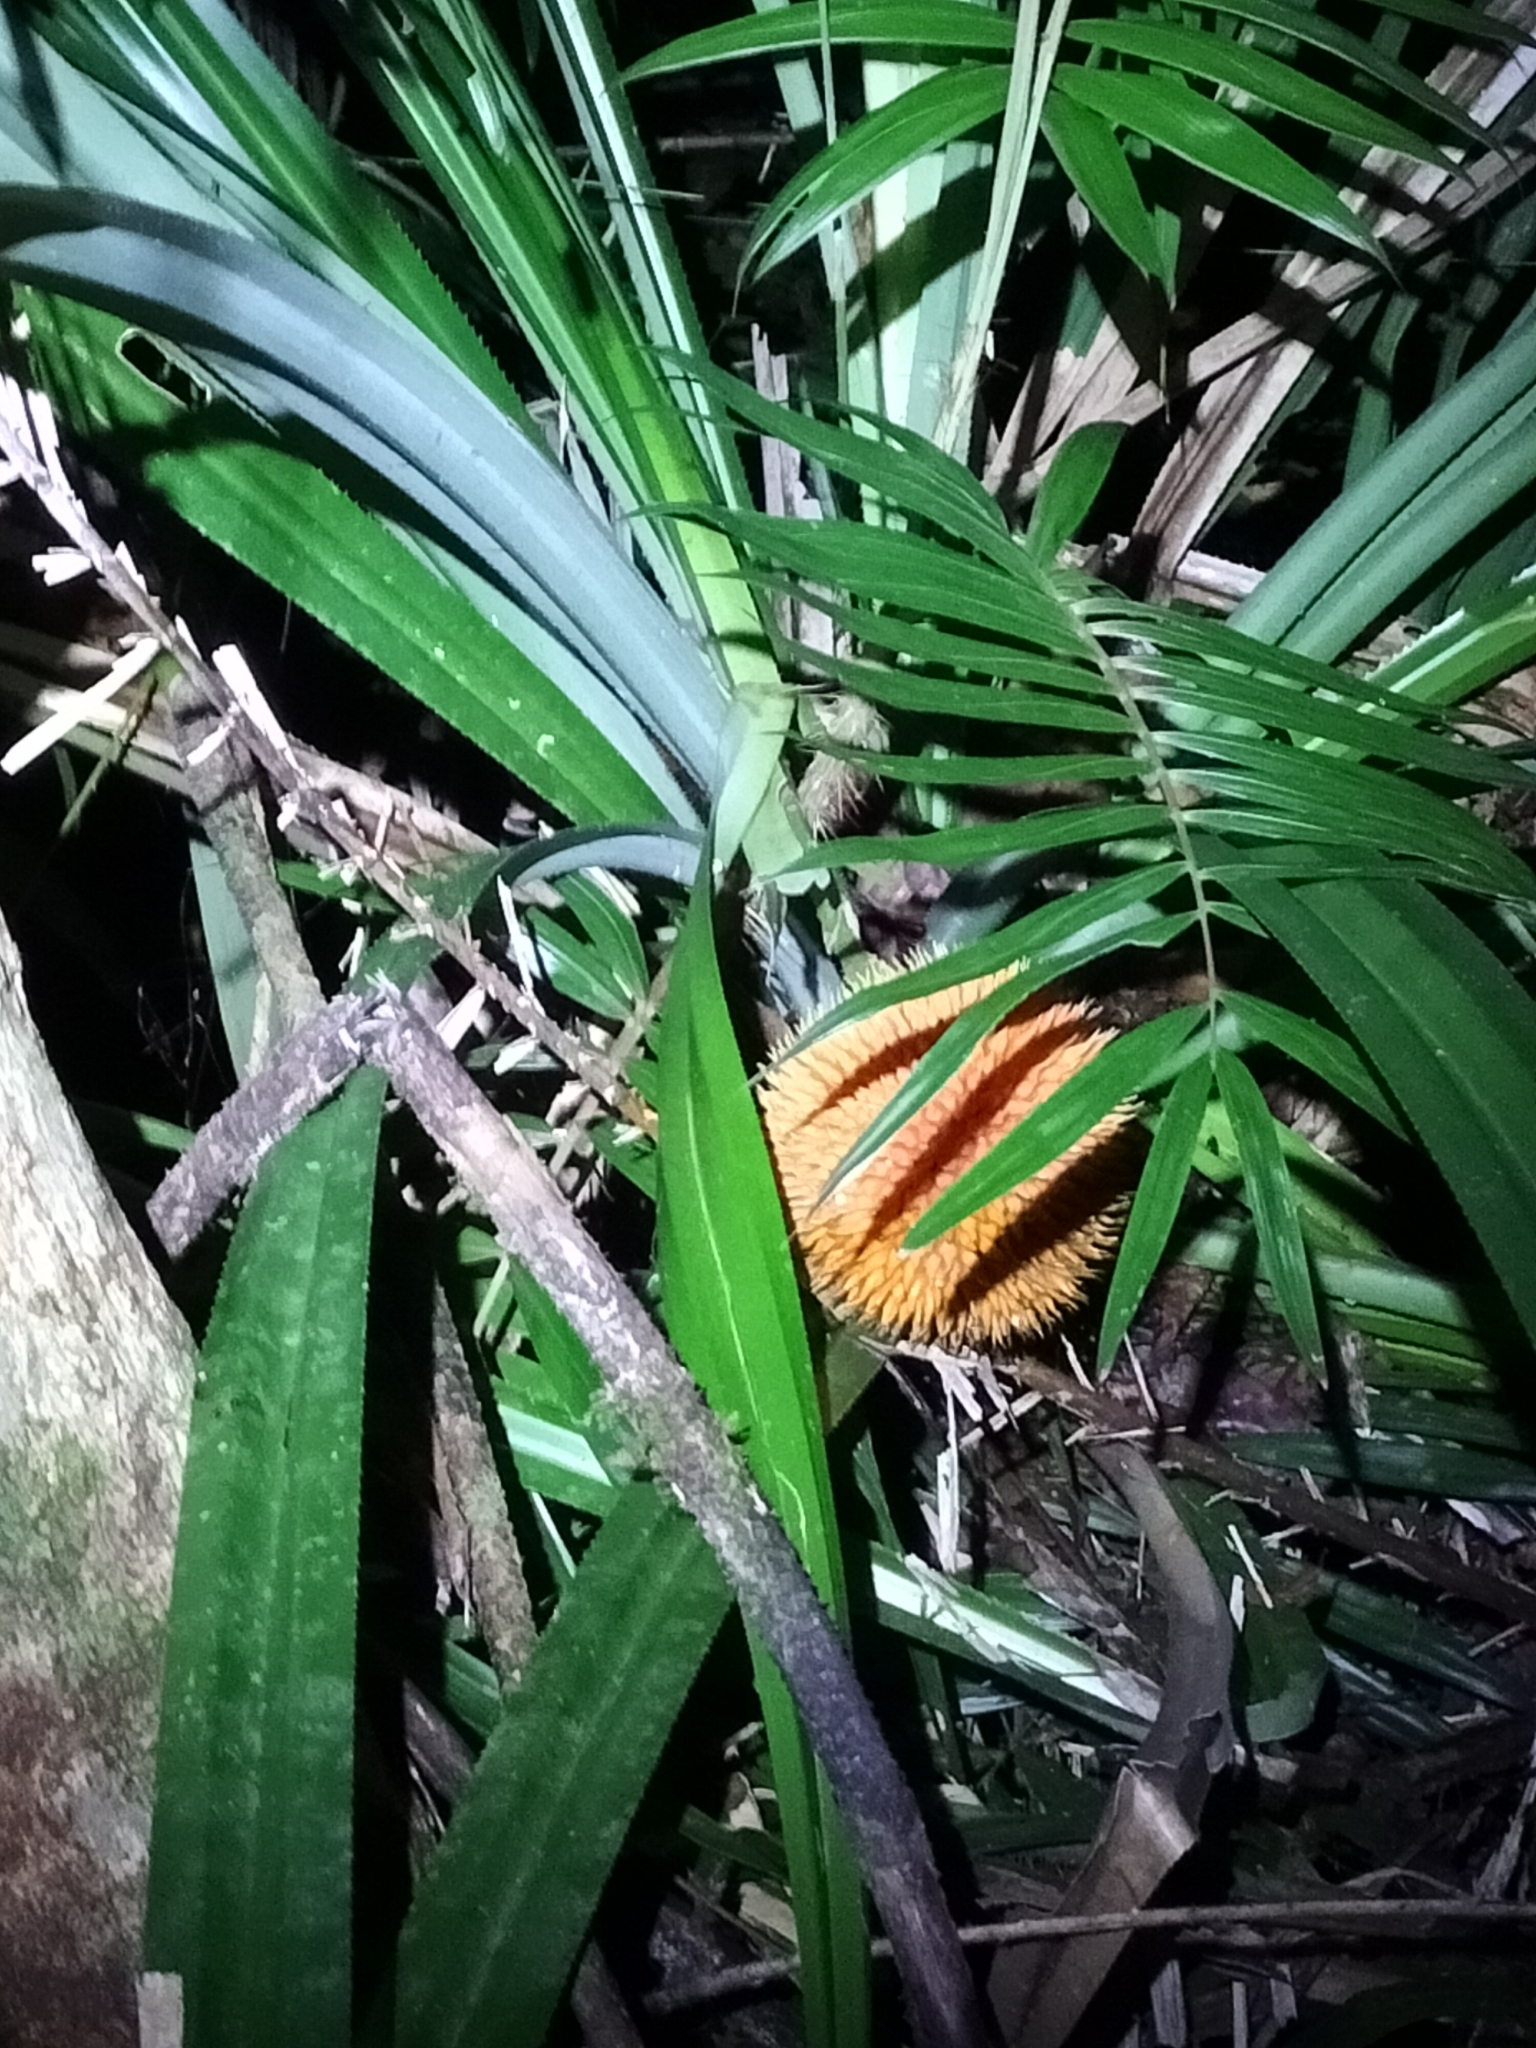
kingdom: Plantae
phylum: Tracheophyta
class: Liliopsida
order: Pandanales
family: Pandanaceae
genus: Benstonea
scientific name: Benstonea monticola
